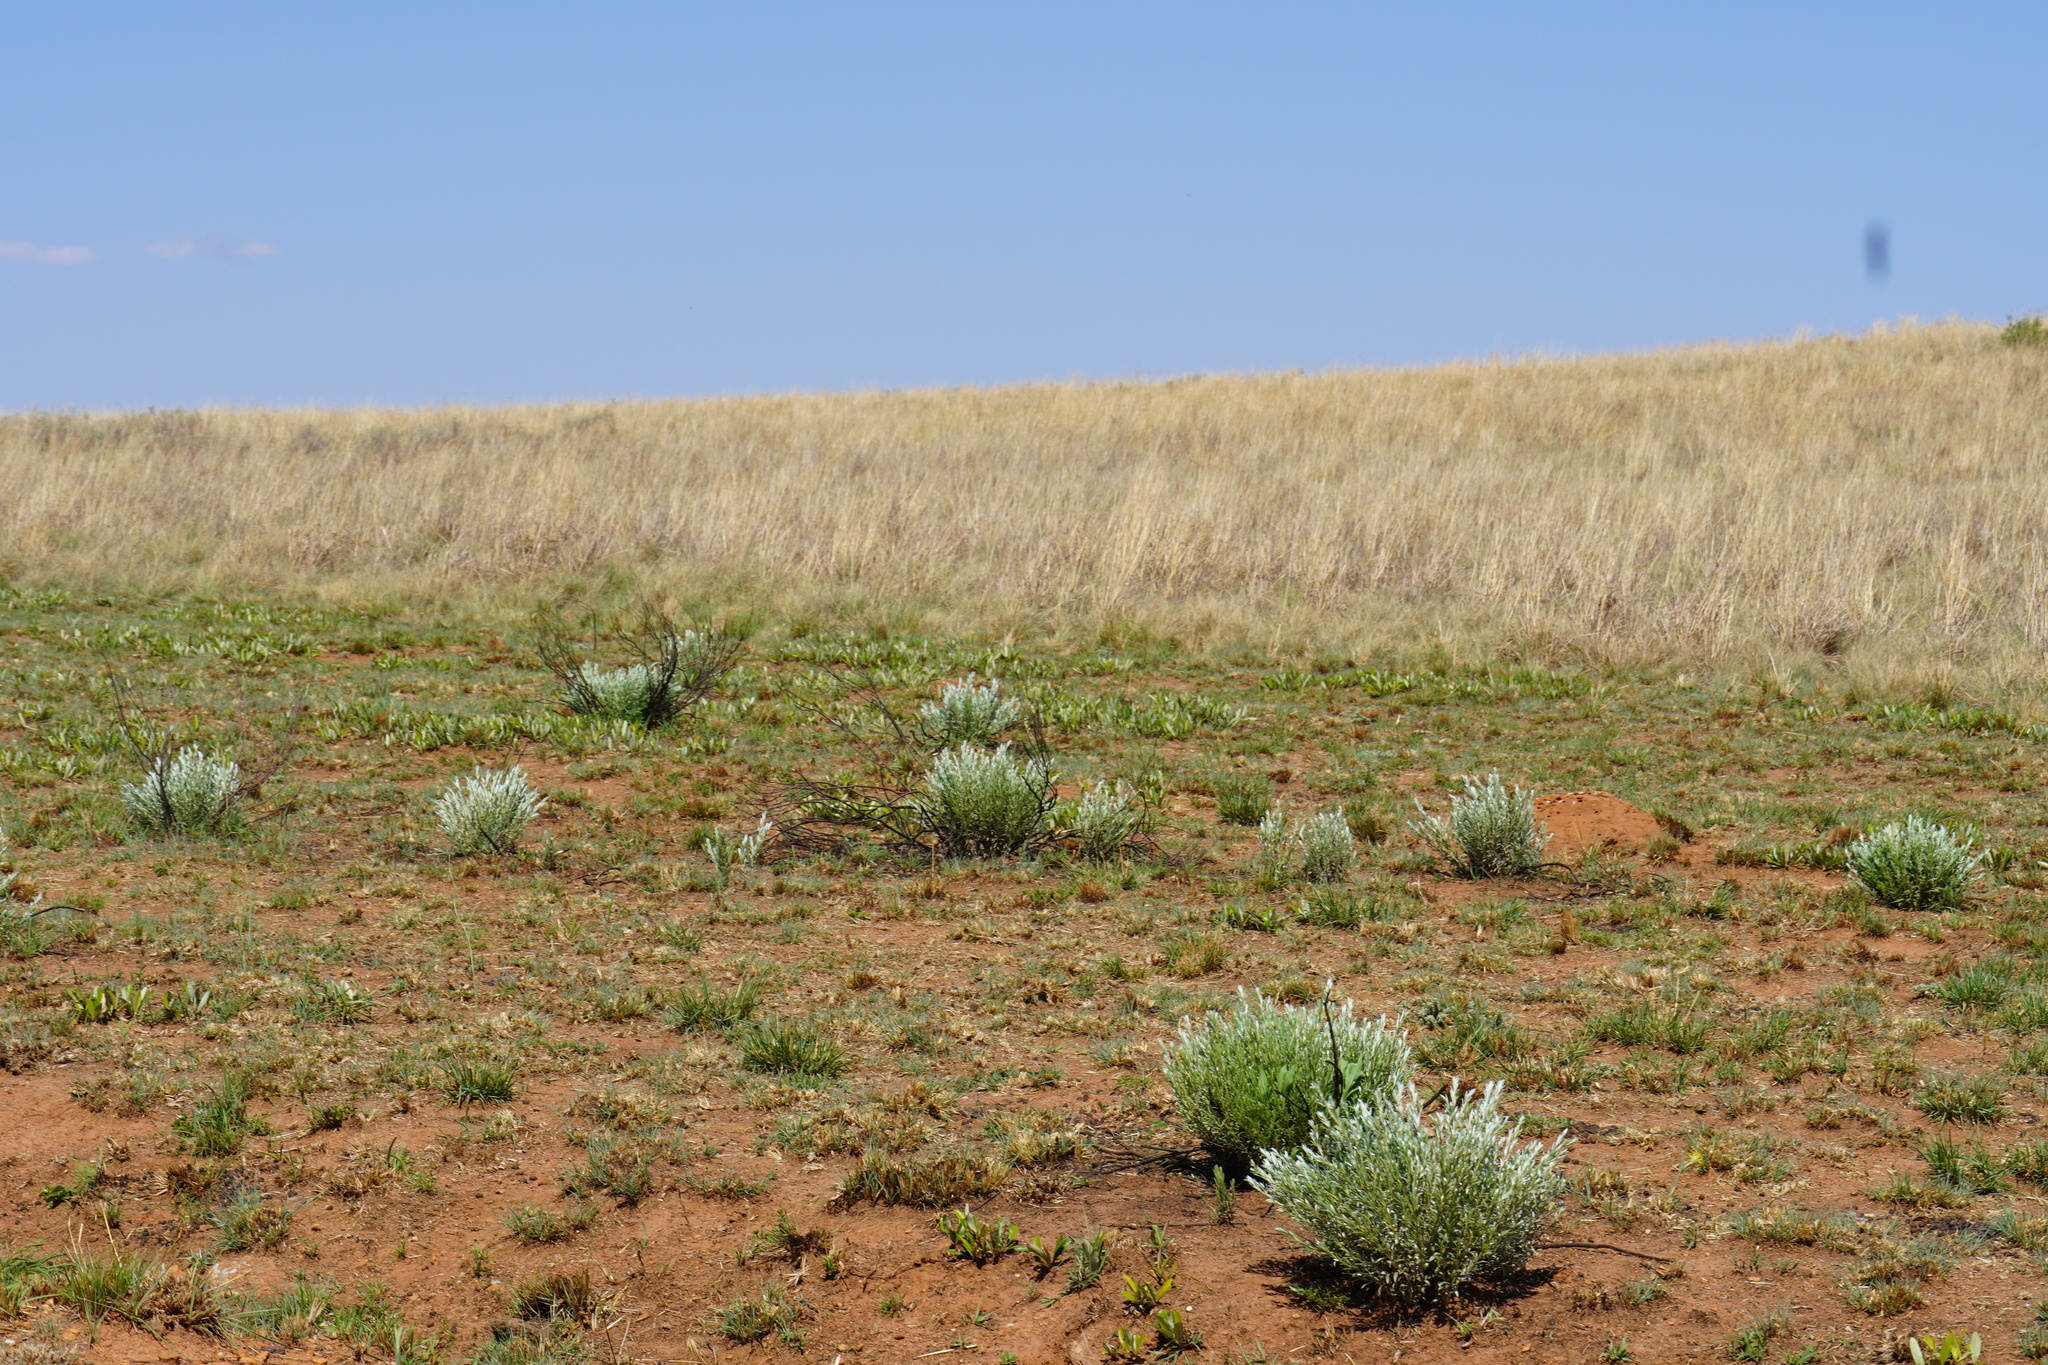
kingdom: Plantae
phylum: Tracheophyta
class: Magnoliopsida
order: Asterales
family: Asteraceae
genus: Hilliardiella
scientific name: Hilliardiella aristata
